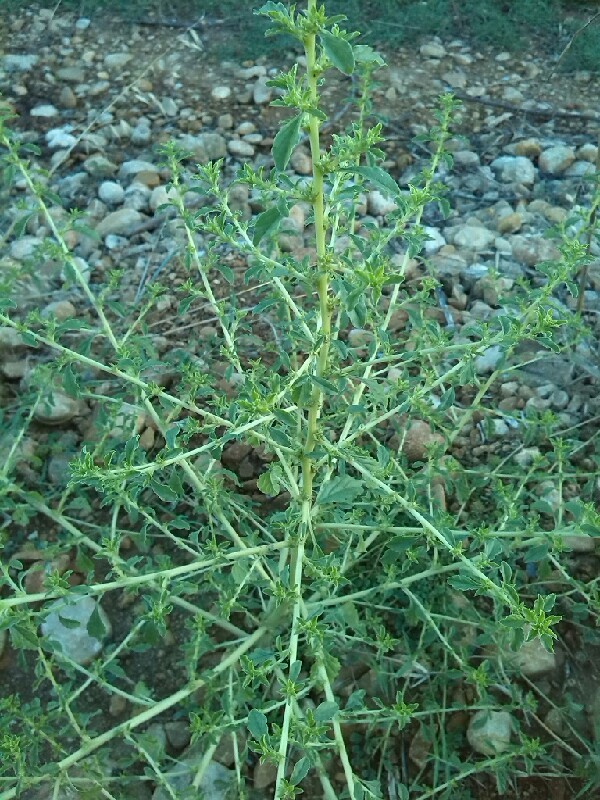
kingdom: Plantae
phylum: Tracheophyta
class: Magnoliopsida
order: Caryophyllales
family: Amaranthaceae
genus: Amaranthus
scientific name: Amaranthus albus
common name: White pigweed
